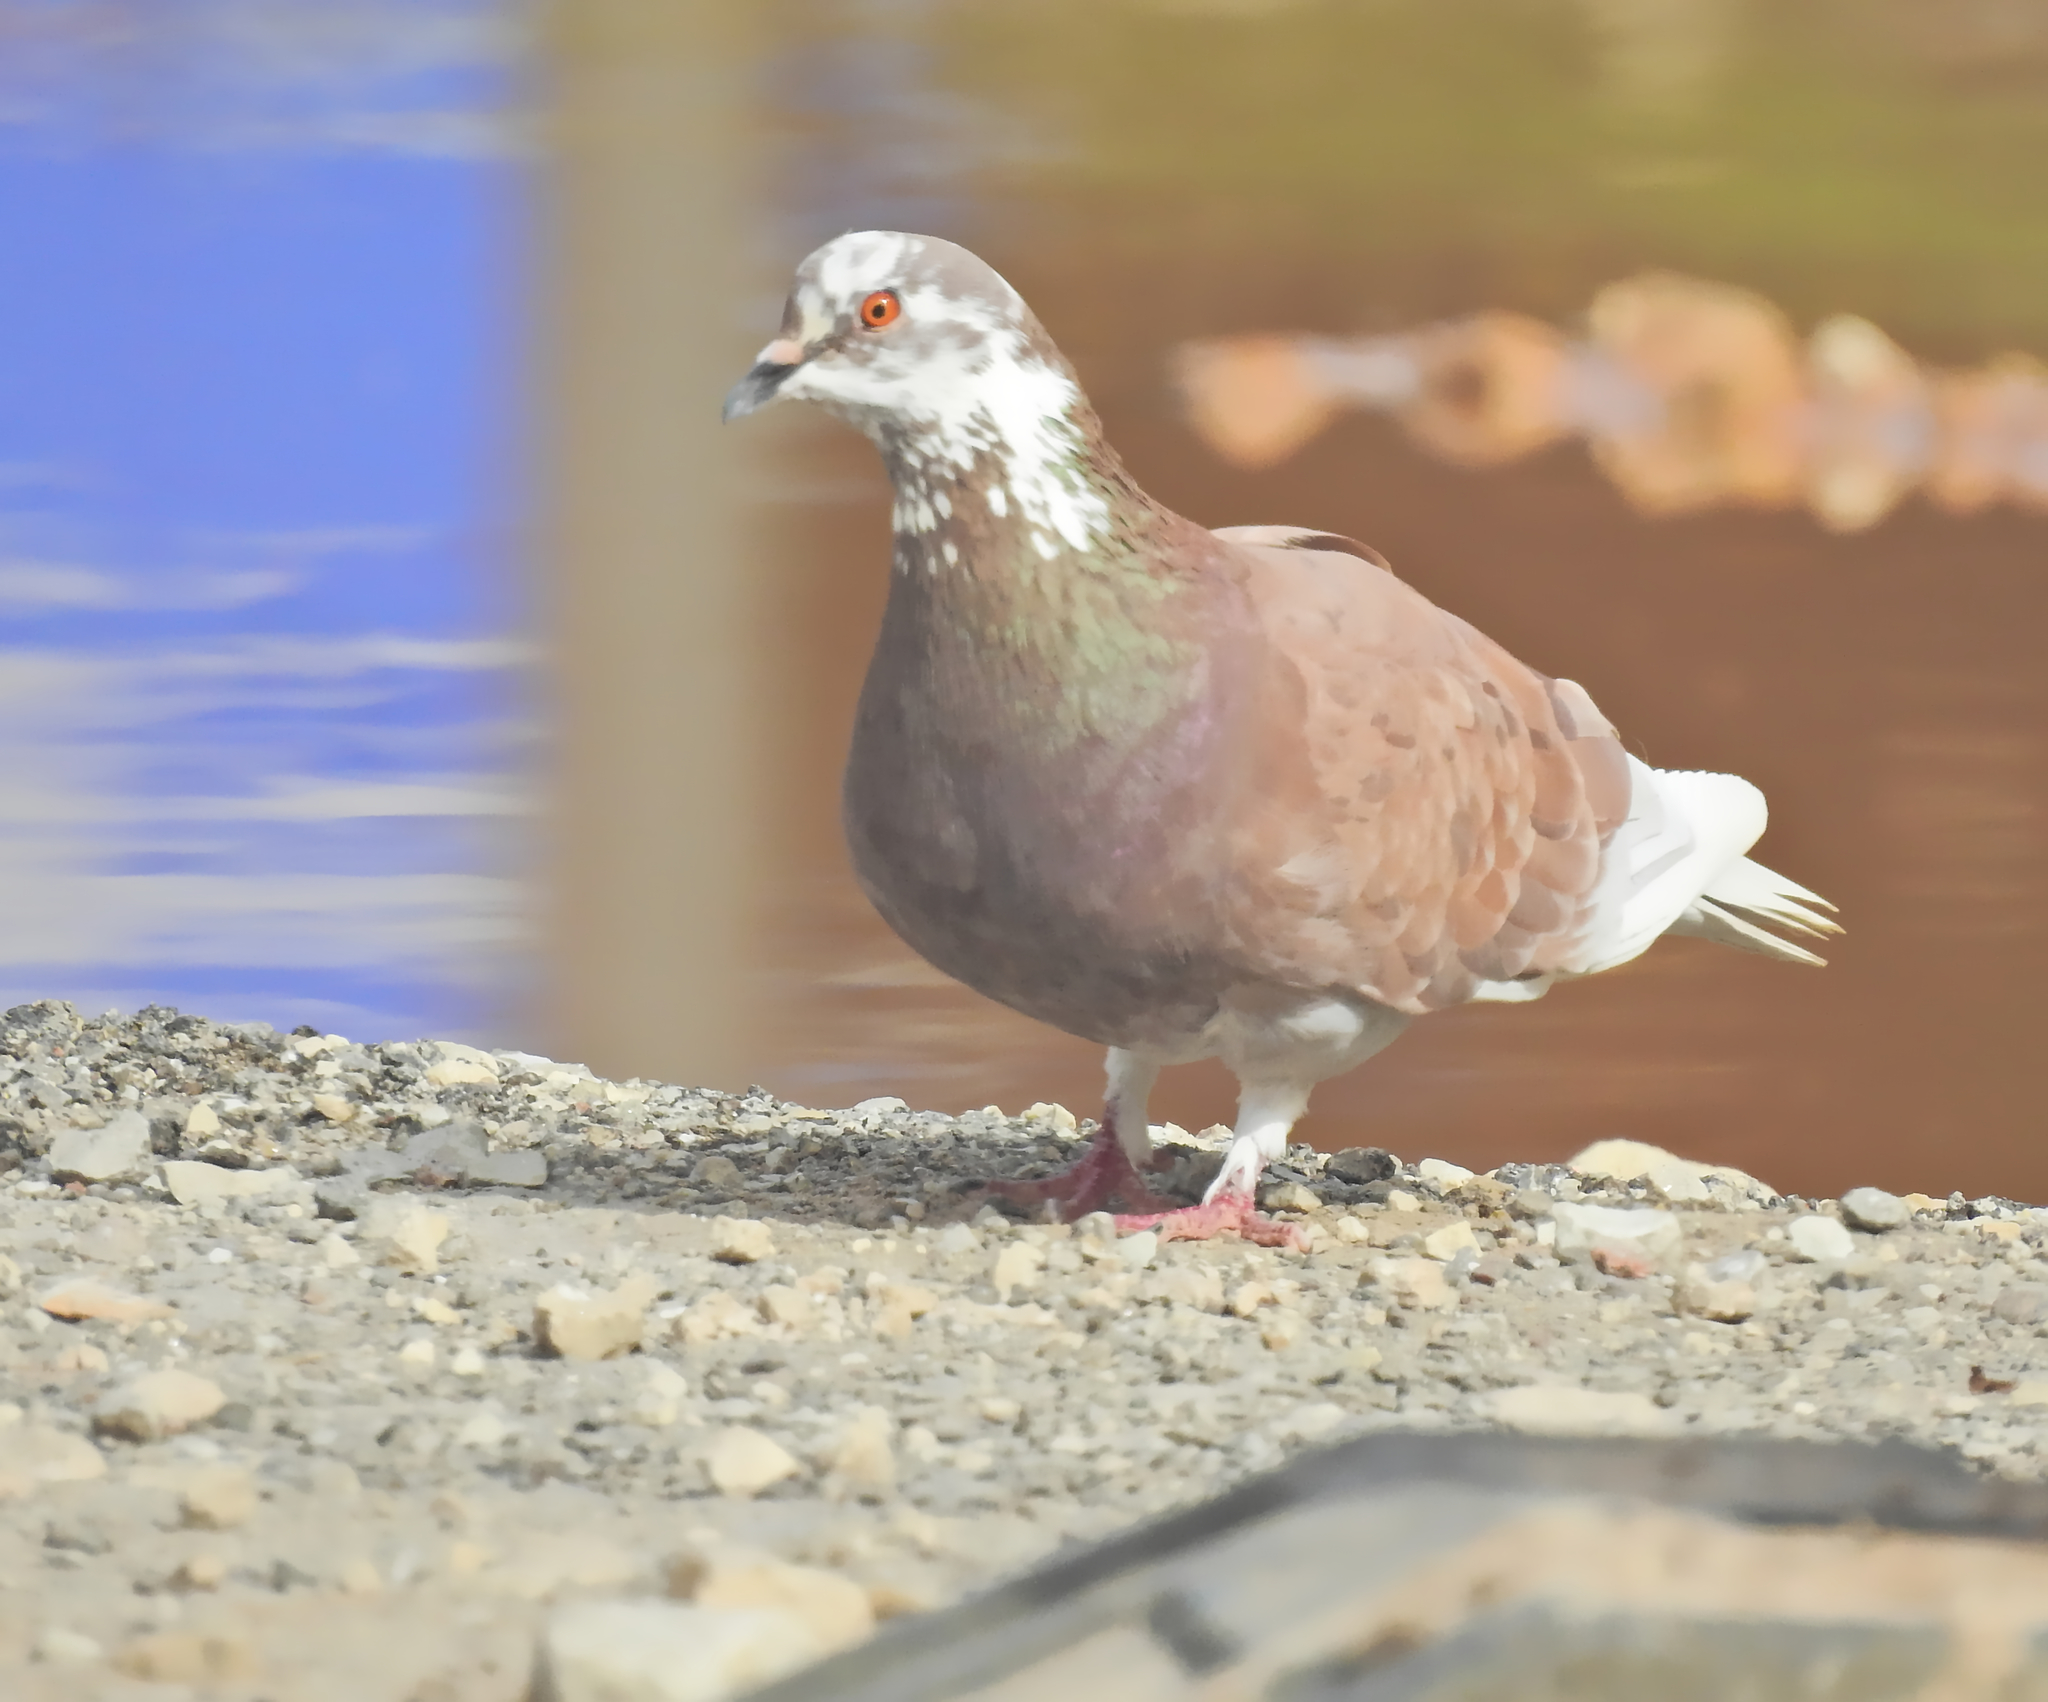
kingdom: Animalia
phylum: Chordata
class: Aves
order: Columbiformes
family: Columbidae
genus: Columba
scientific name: Columba livia
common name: Rock pigeon
